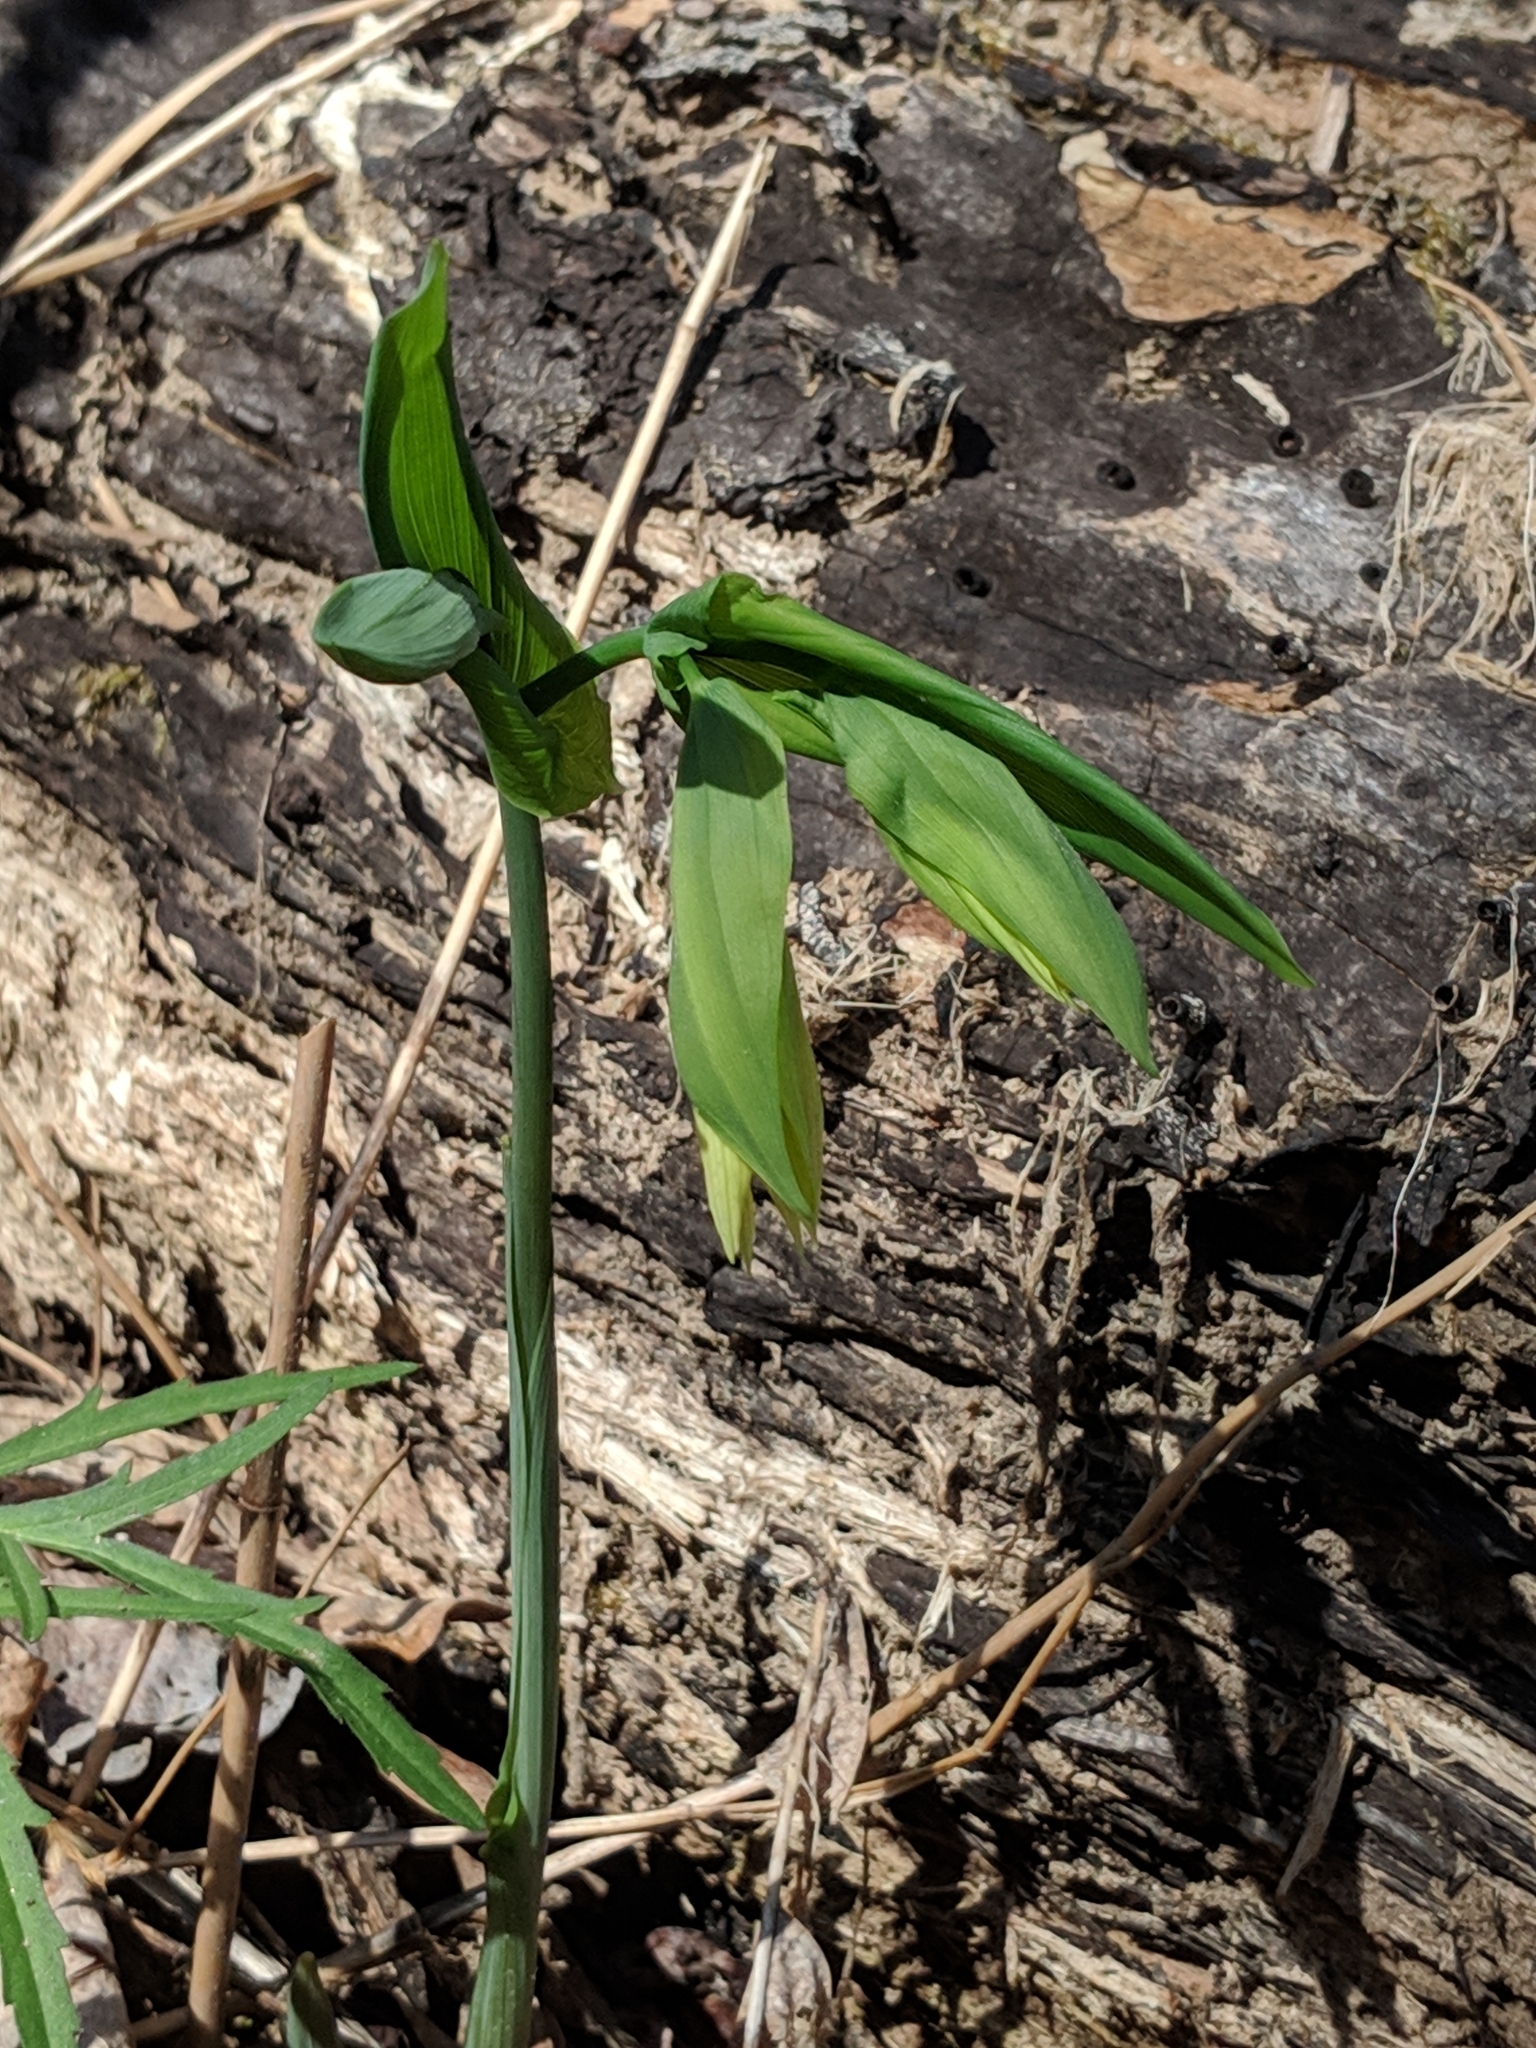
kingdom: Plantae
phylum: Tracheophyta
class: Liliopsida
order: Liliales
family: Colchicaceae
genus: Uvularia
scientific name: Uvularia grandiflora
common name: Bellwort
